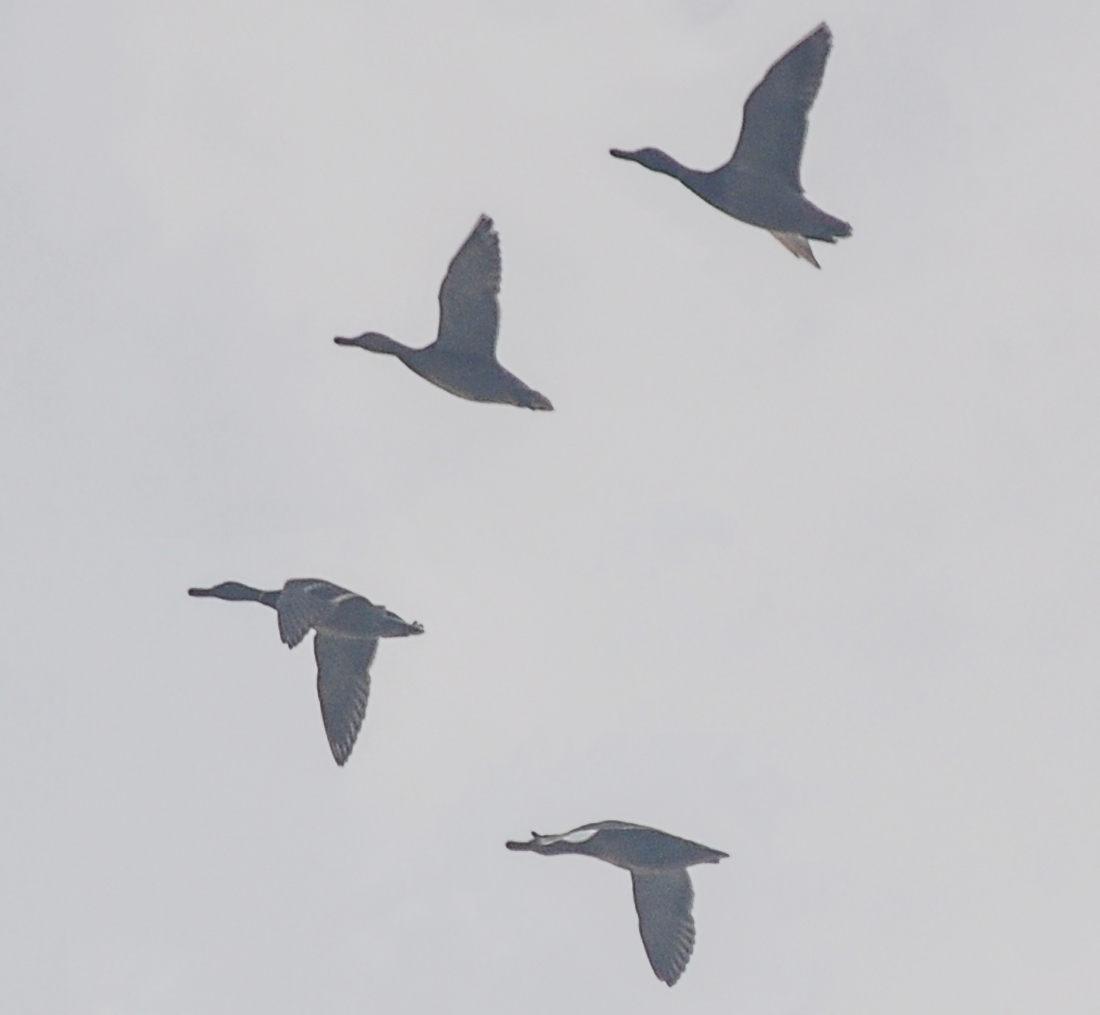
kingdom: Animalia
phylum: Chordata
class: Aves
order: Anseriformes
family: Anatidae
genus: Anas
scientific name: Anas platyrhynchos
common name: Mallard
